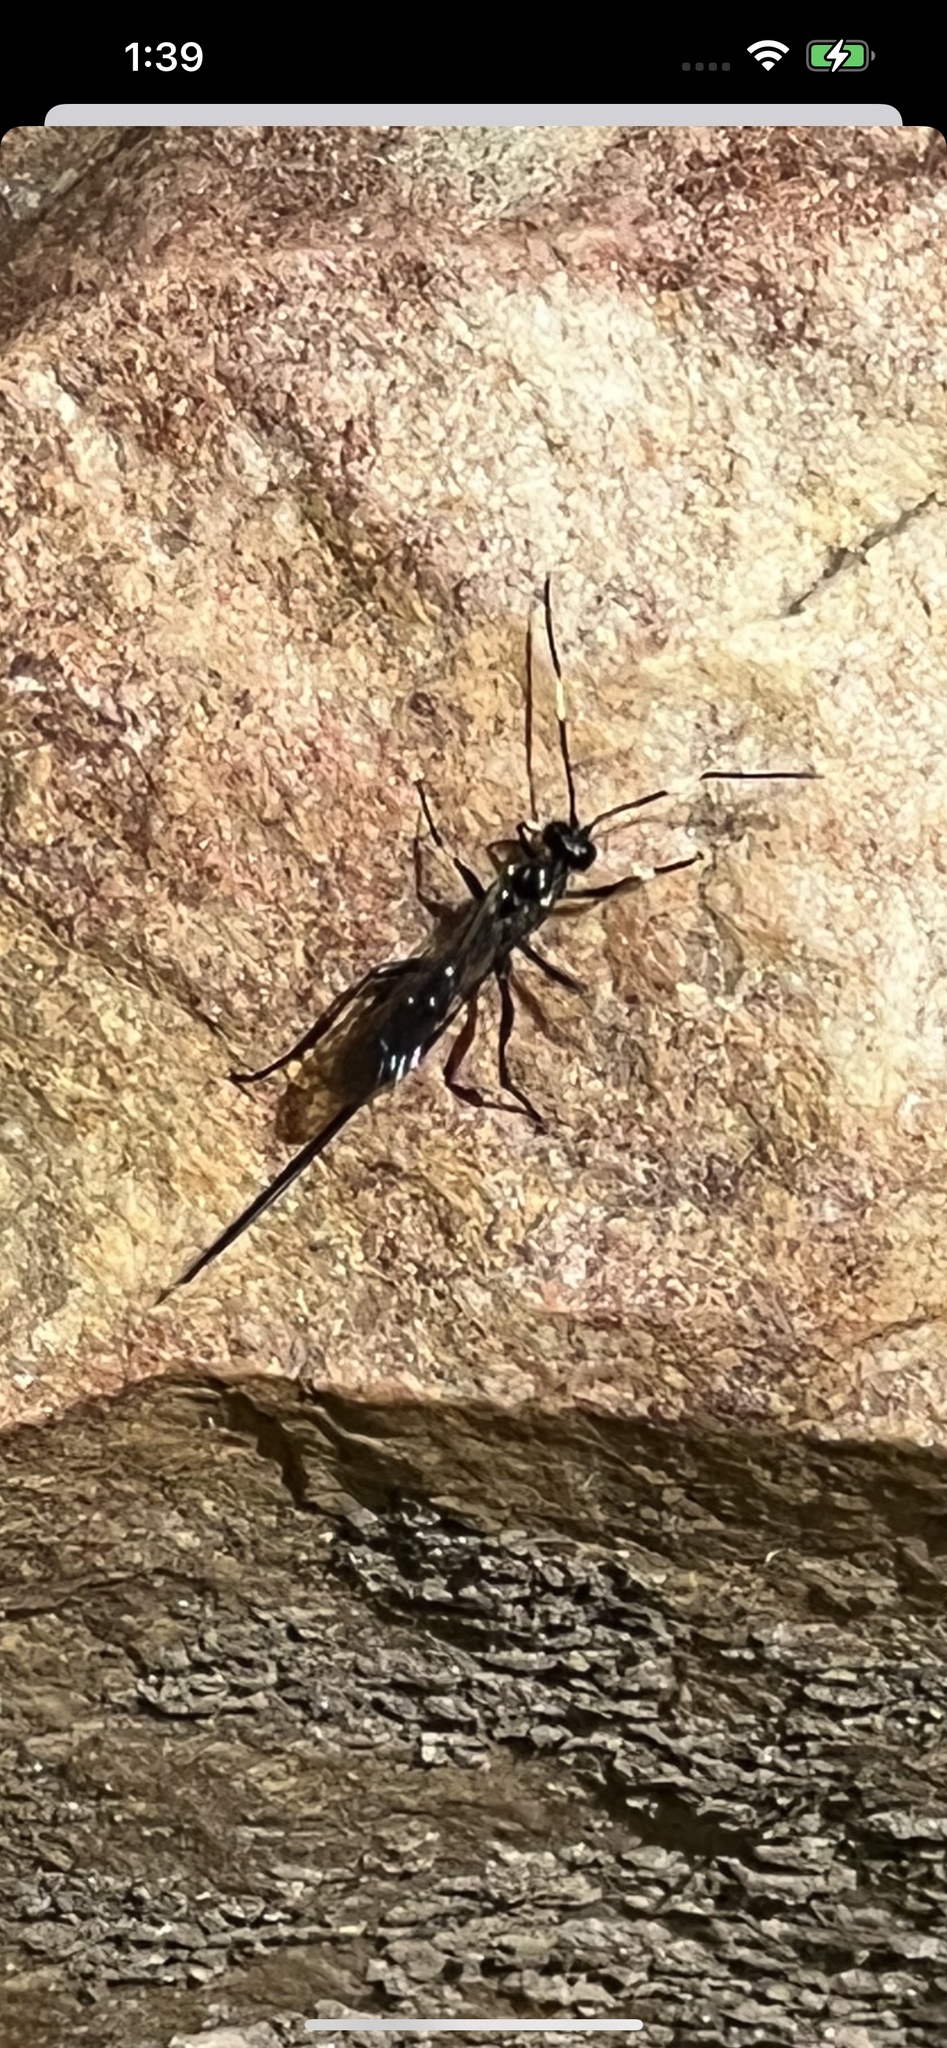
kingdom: Animalia
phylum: Arthropoda
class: Insecta
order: Hymenoptera
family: Ichneumonidae
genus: Echthrus
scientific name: Echthrus niger
